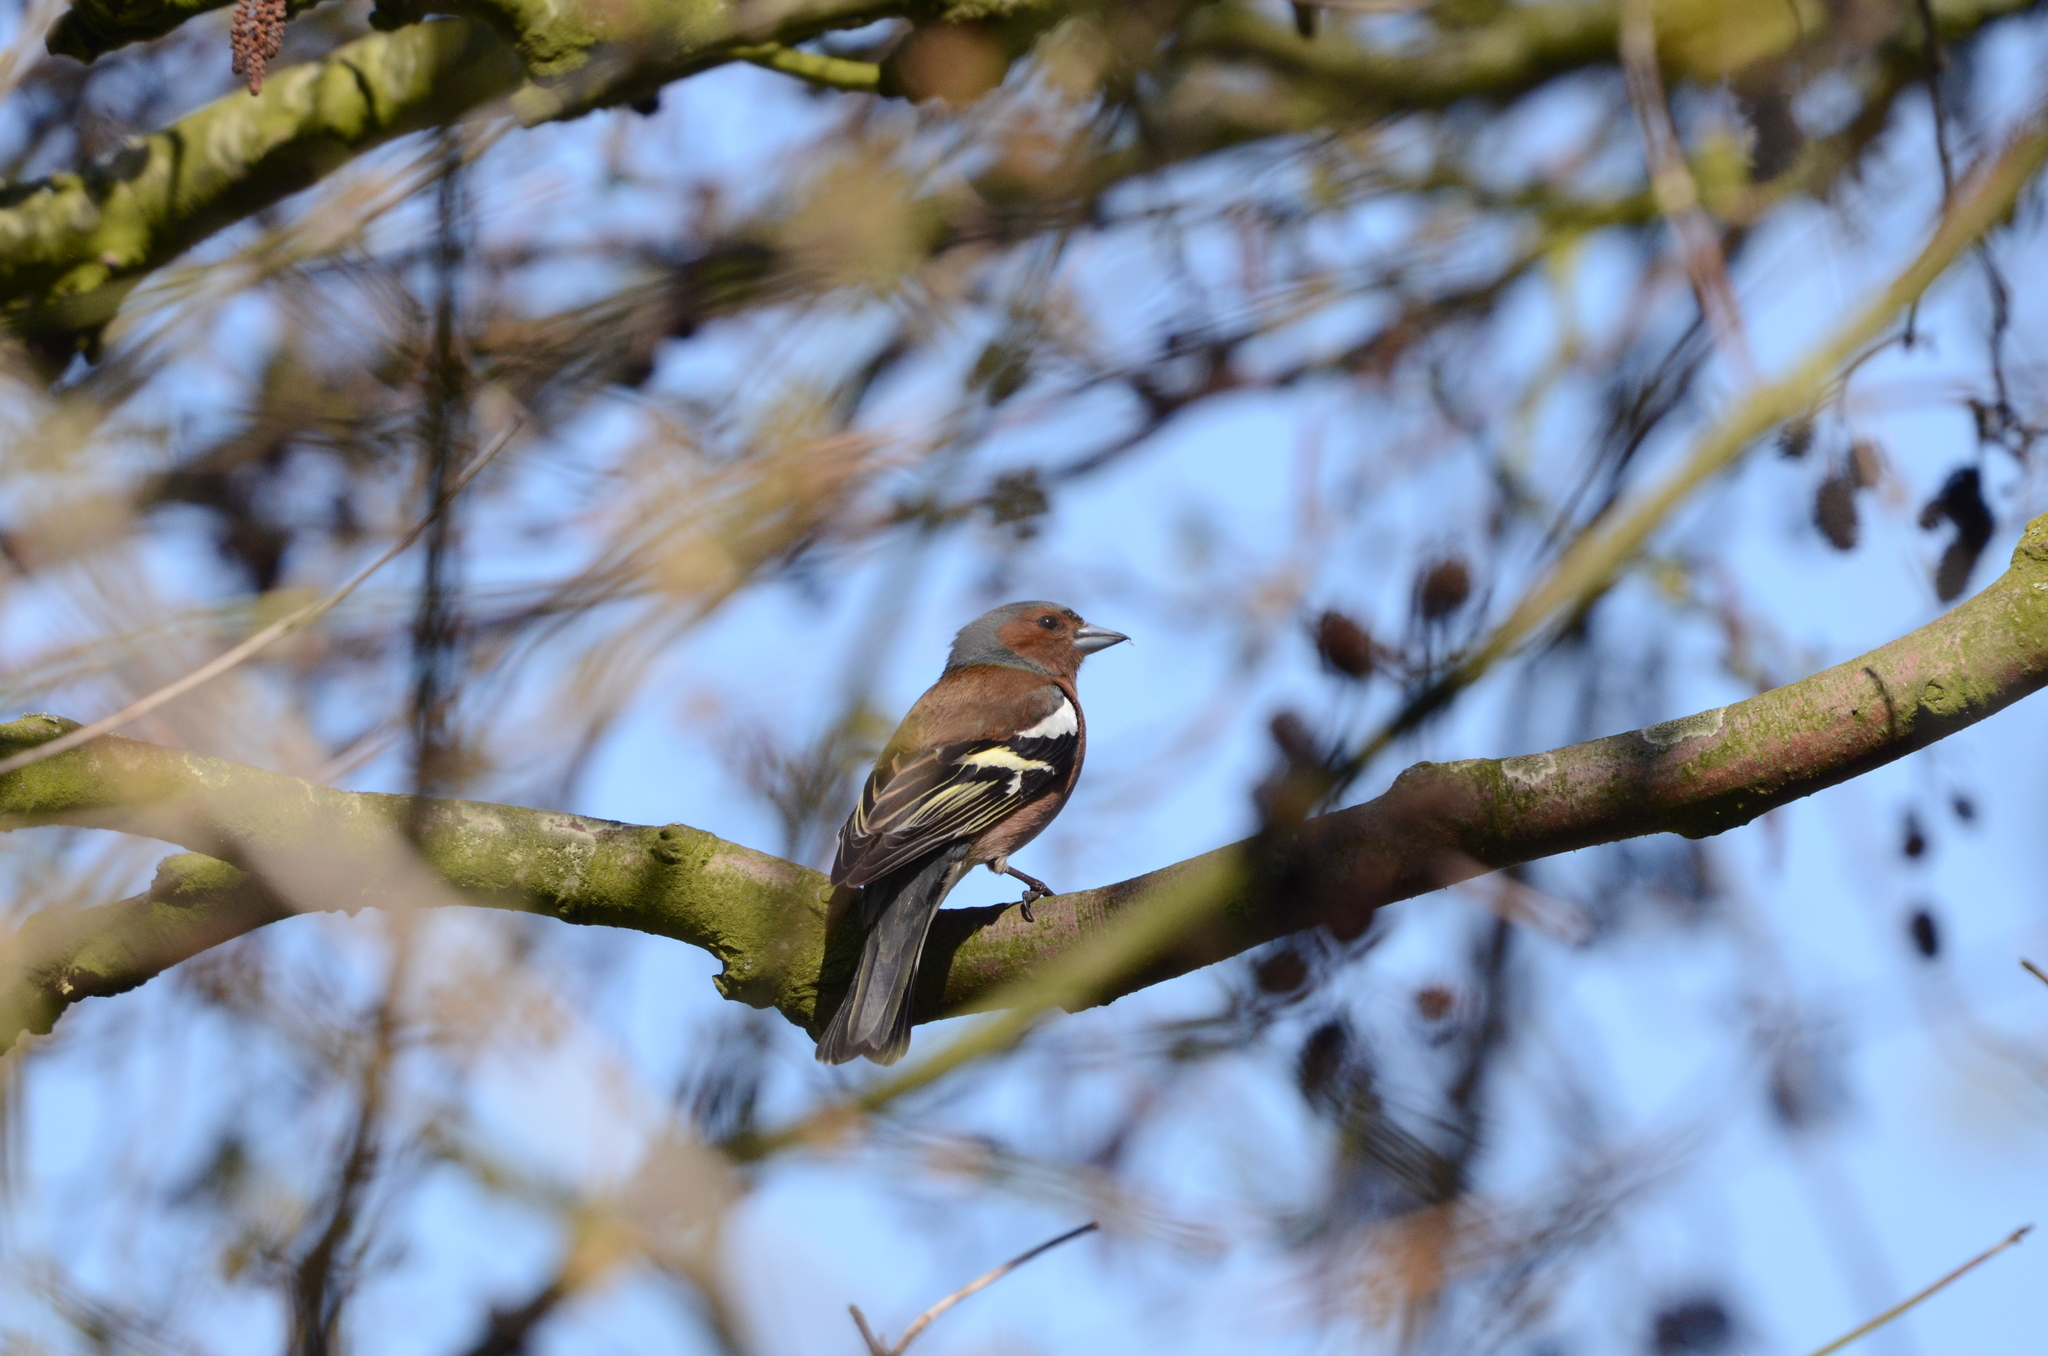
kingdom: Animalia
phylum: Chordata
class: Aves
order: Passeriformes
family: Fringillidae
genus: Fringilla
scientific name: Fringilla coelebs
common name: Common chaffinch
